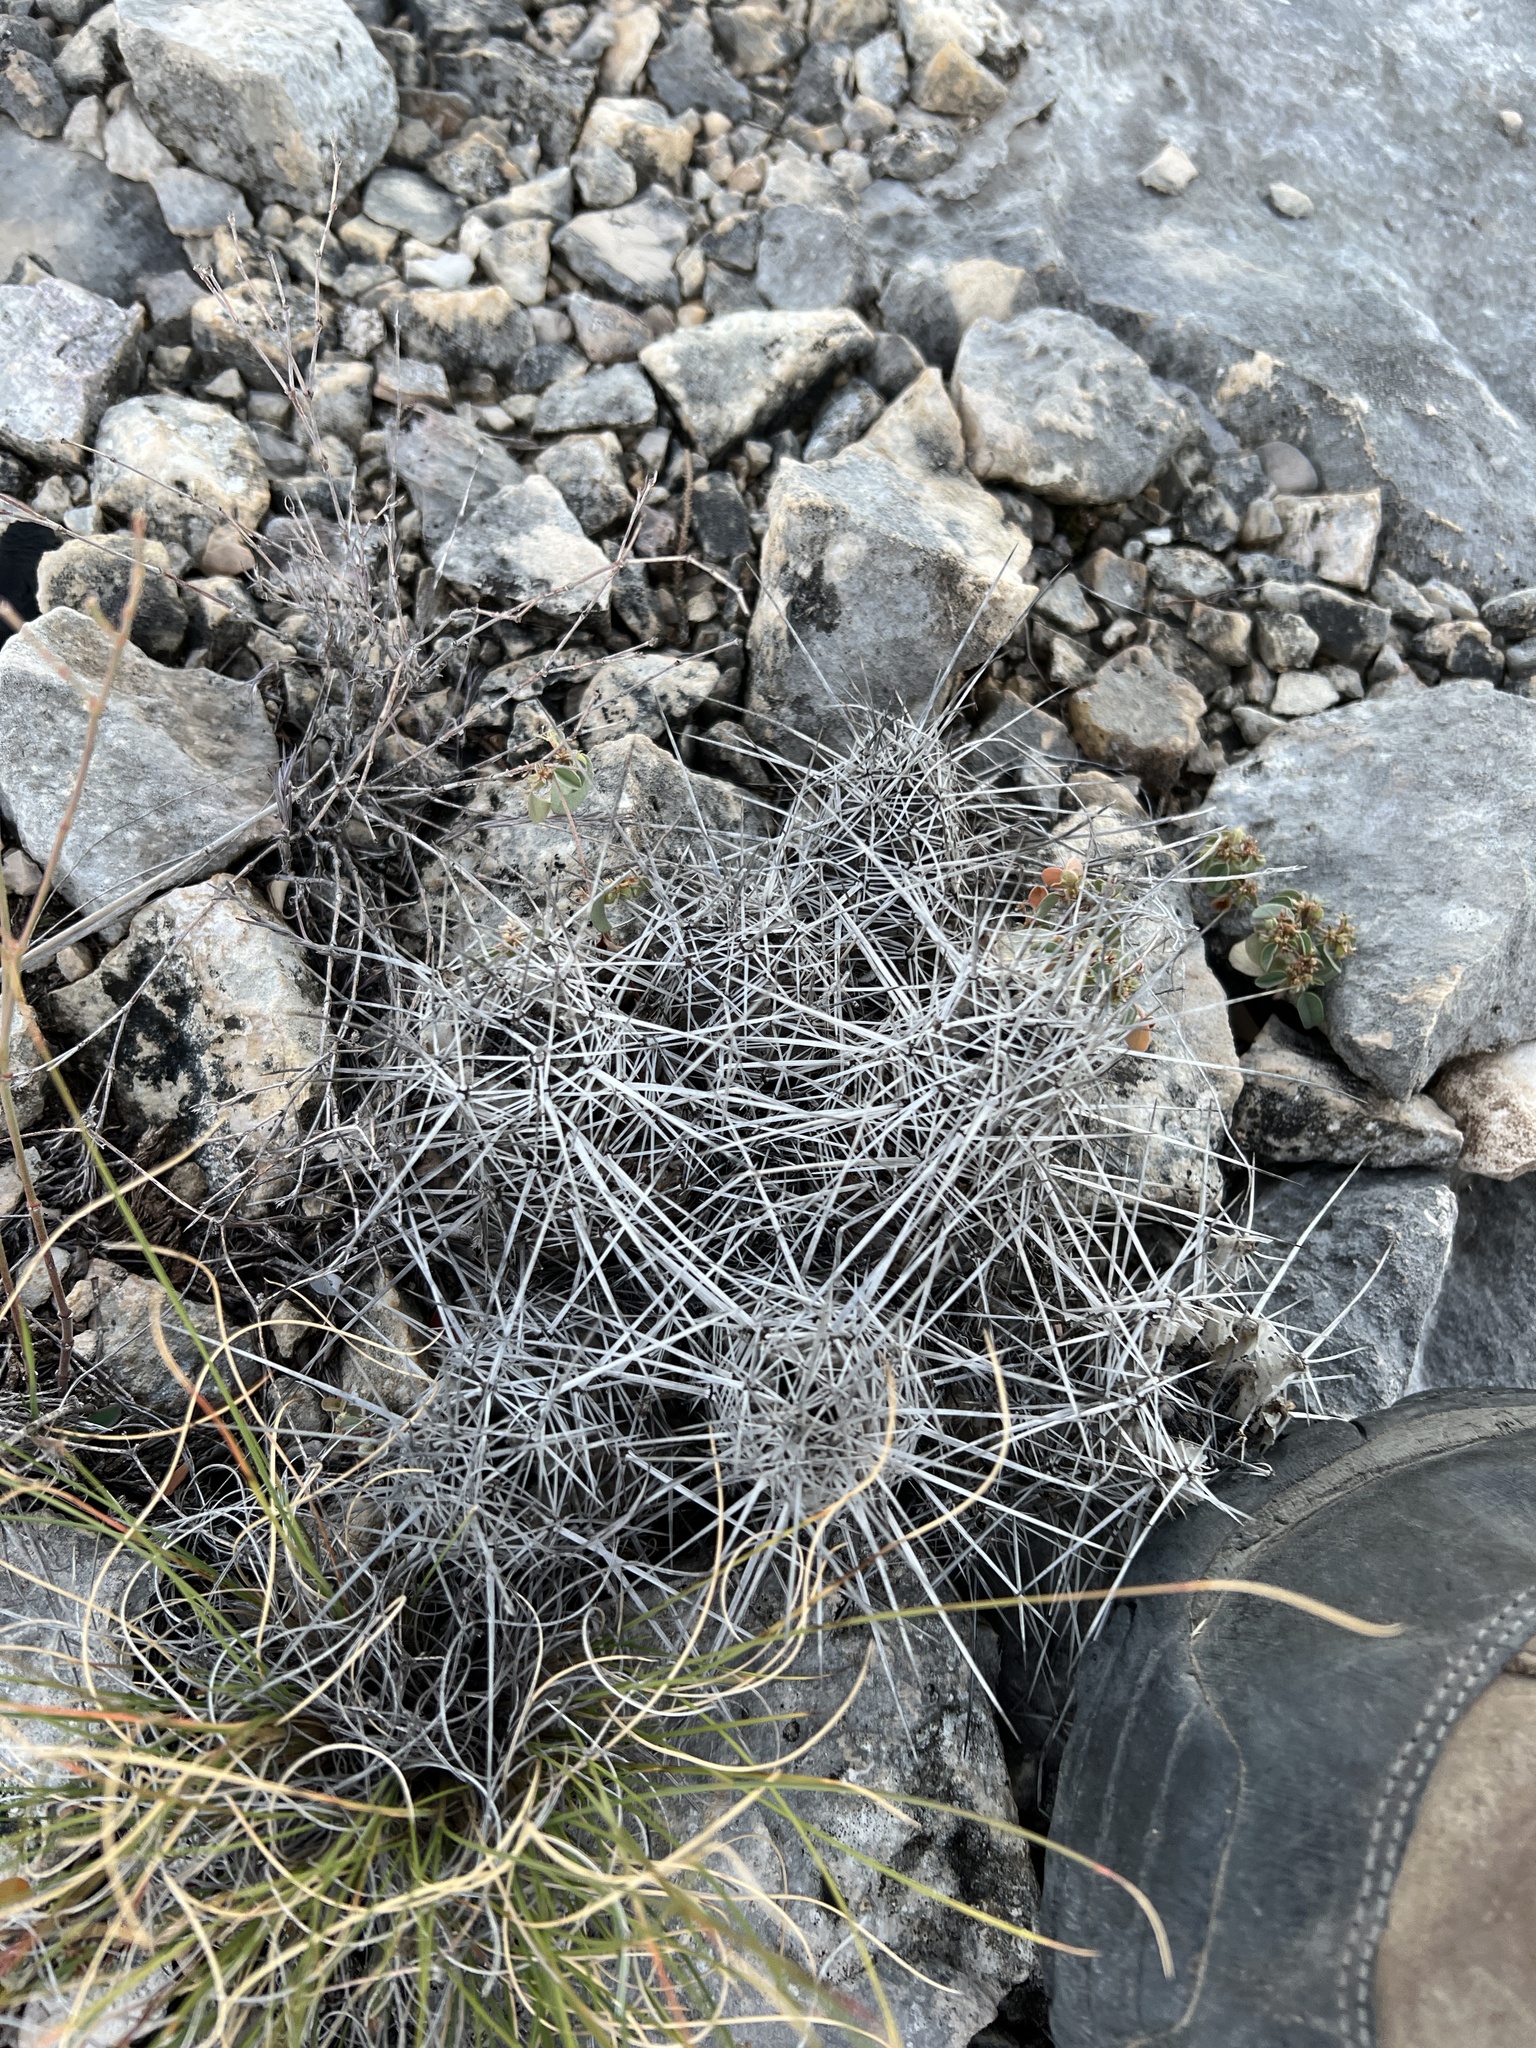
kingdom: Plantae
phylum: Tracheophyta
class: Magnoliopsida
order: Caryophyllales
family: Cactaceae
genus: Echinocereus
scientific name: Echinocereus enneacanthus
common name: Pitaya
